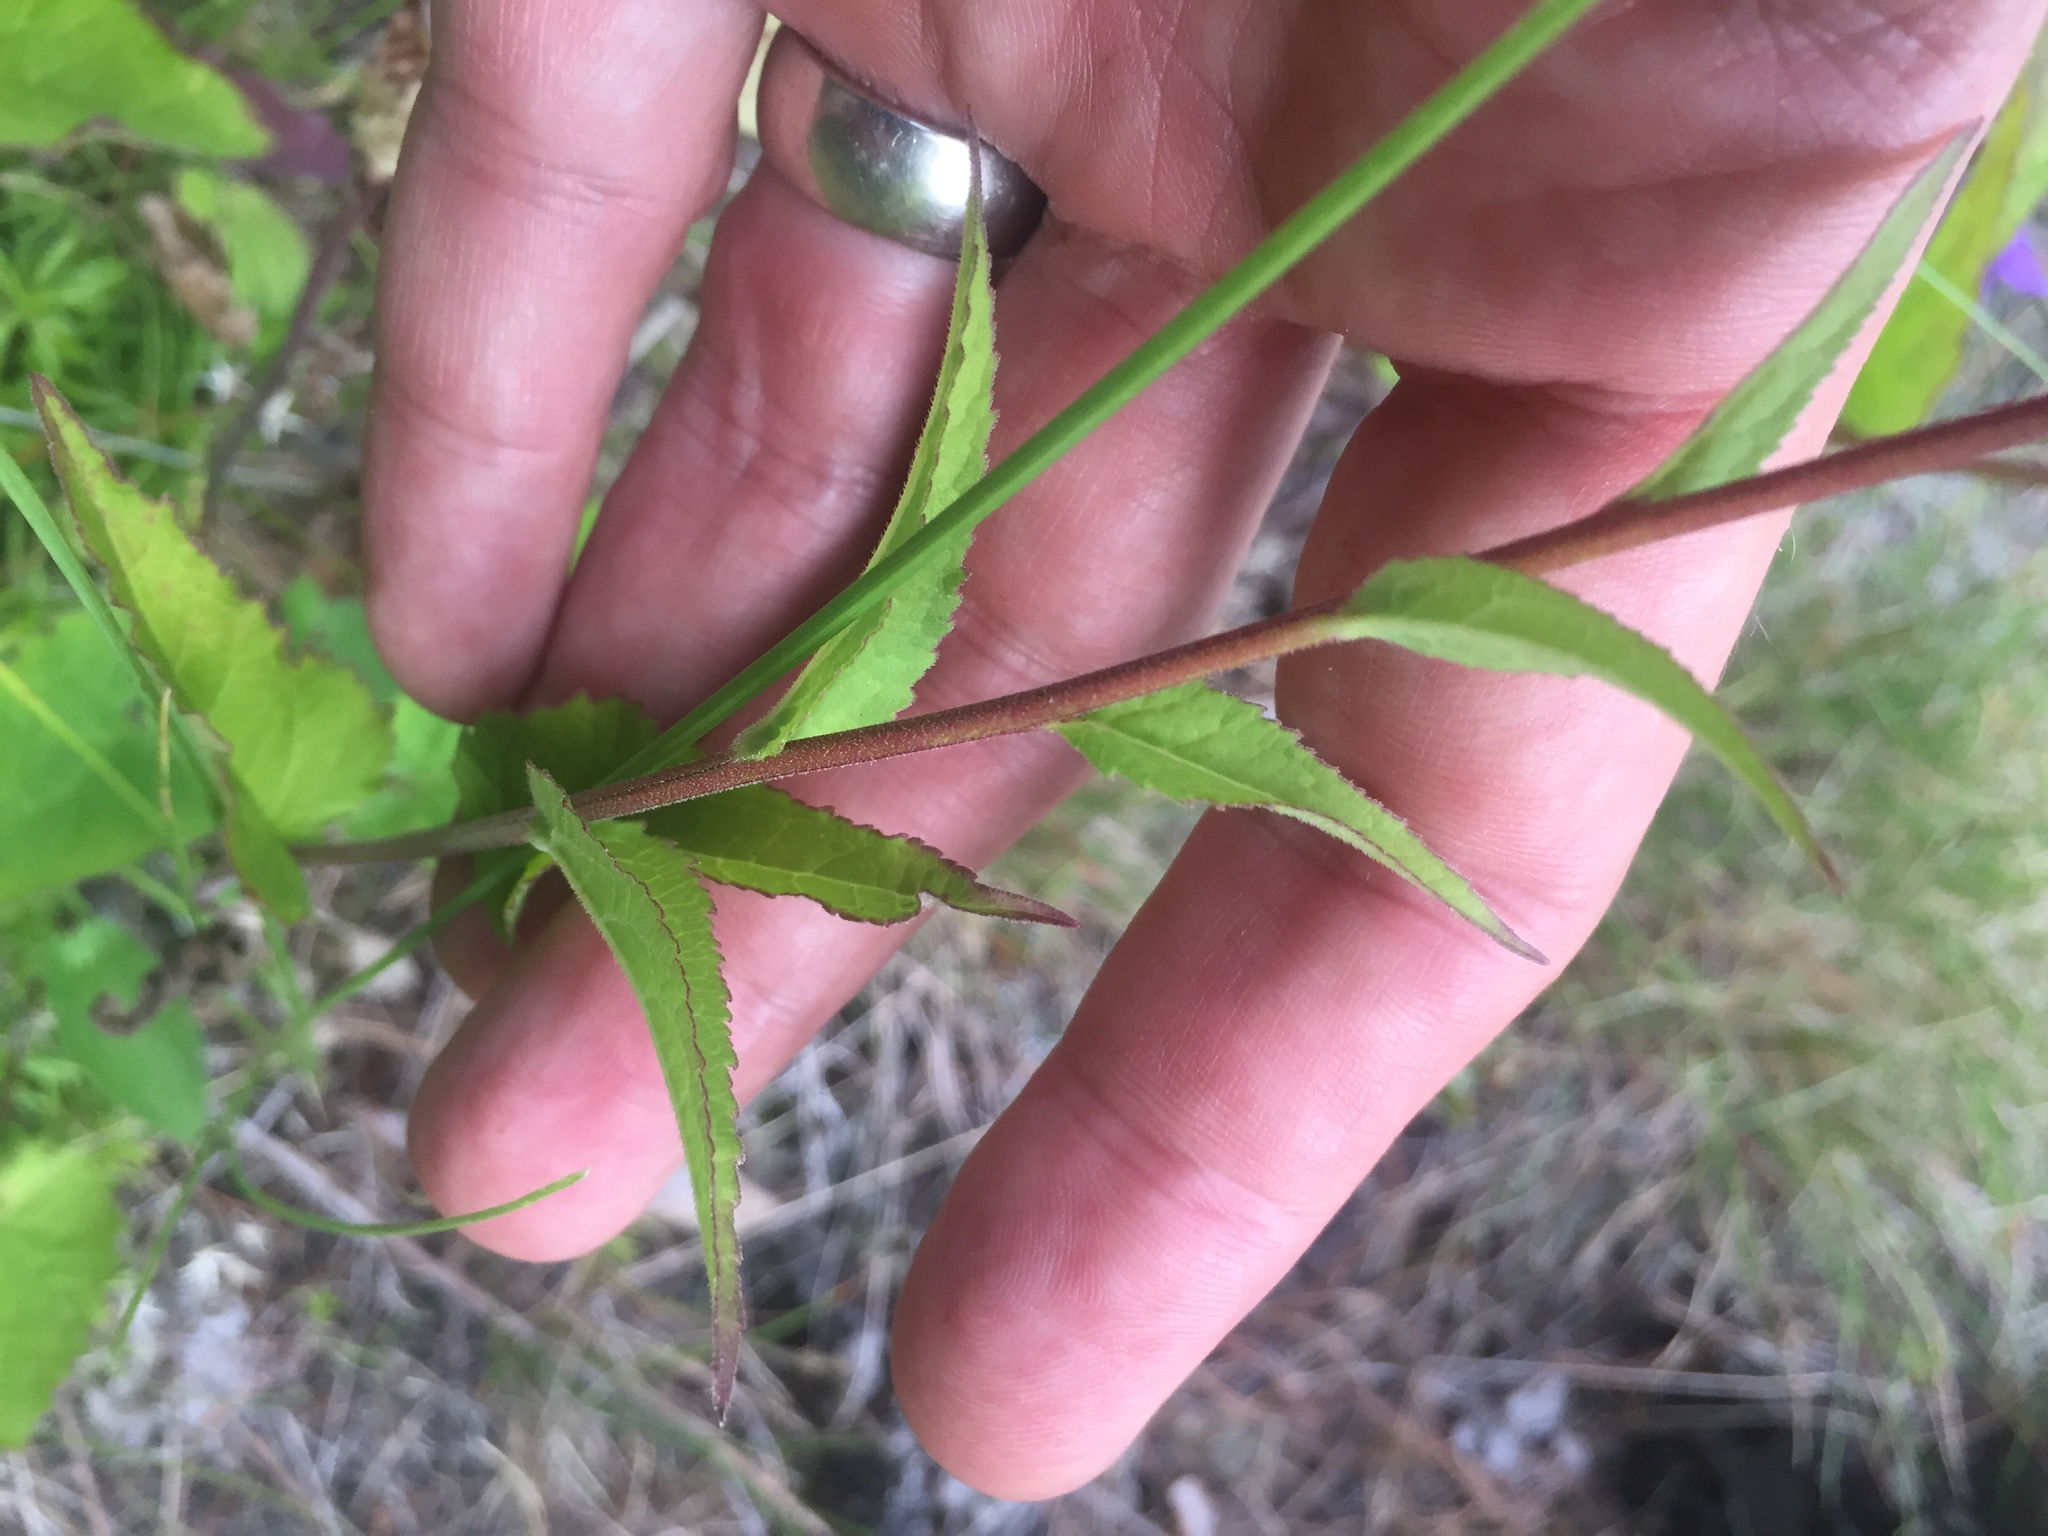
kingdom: Plantae
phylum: Tracheophyta
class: Magnoliopsida
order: Asterales
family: Campanulaceae
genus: Campanula
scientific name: Campanula rapunculoides
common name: Creeping bellflower
